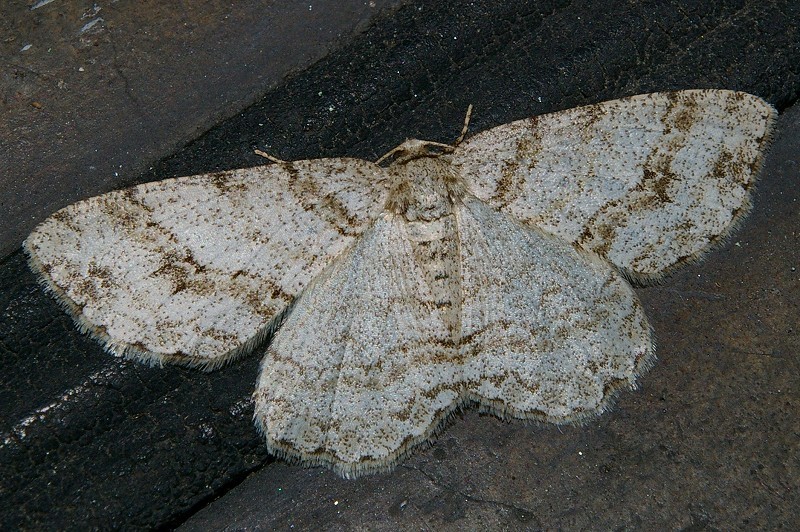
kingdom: Animalia
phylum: Arthropoda
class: Insecta
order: Lepidoptera
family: Geometridae
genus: Ectropis
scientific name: Ectropis obliqua
